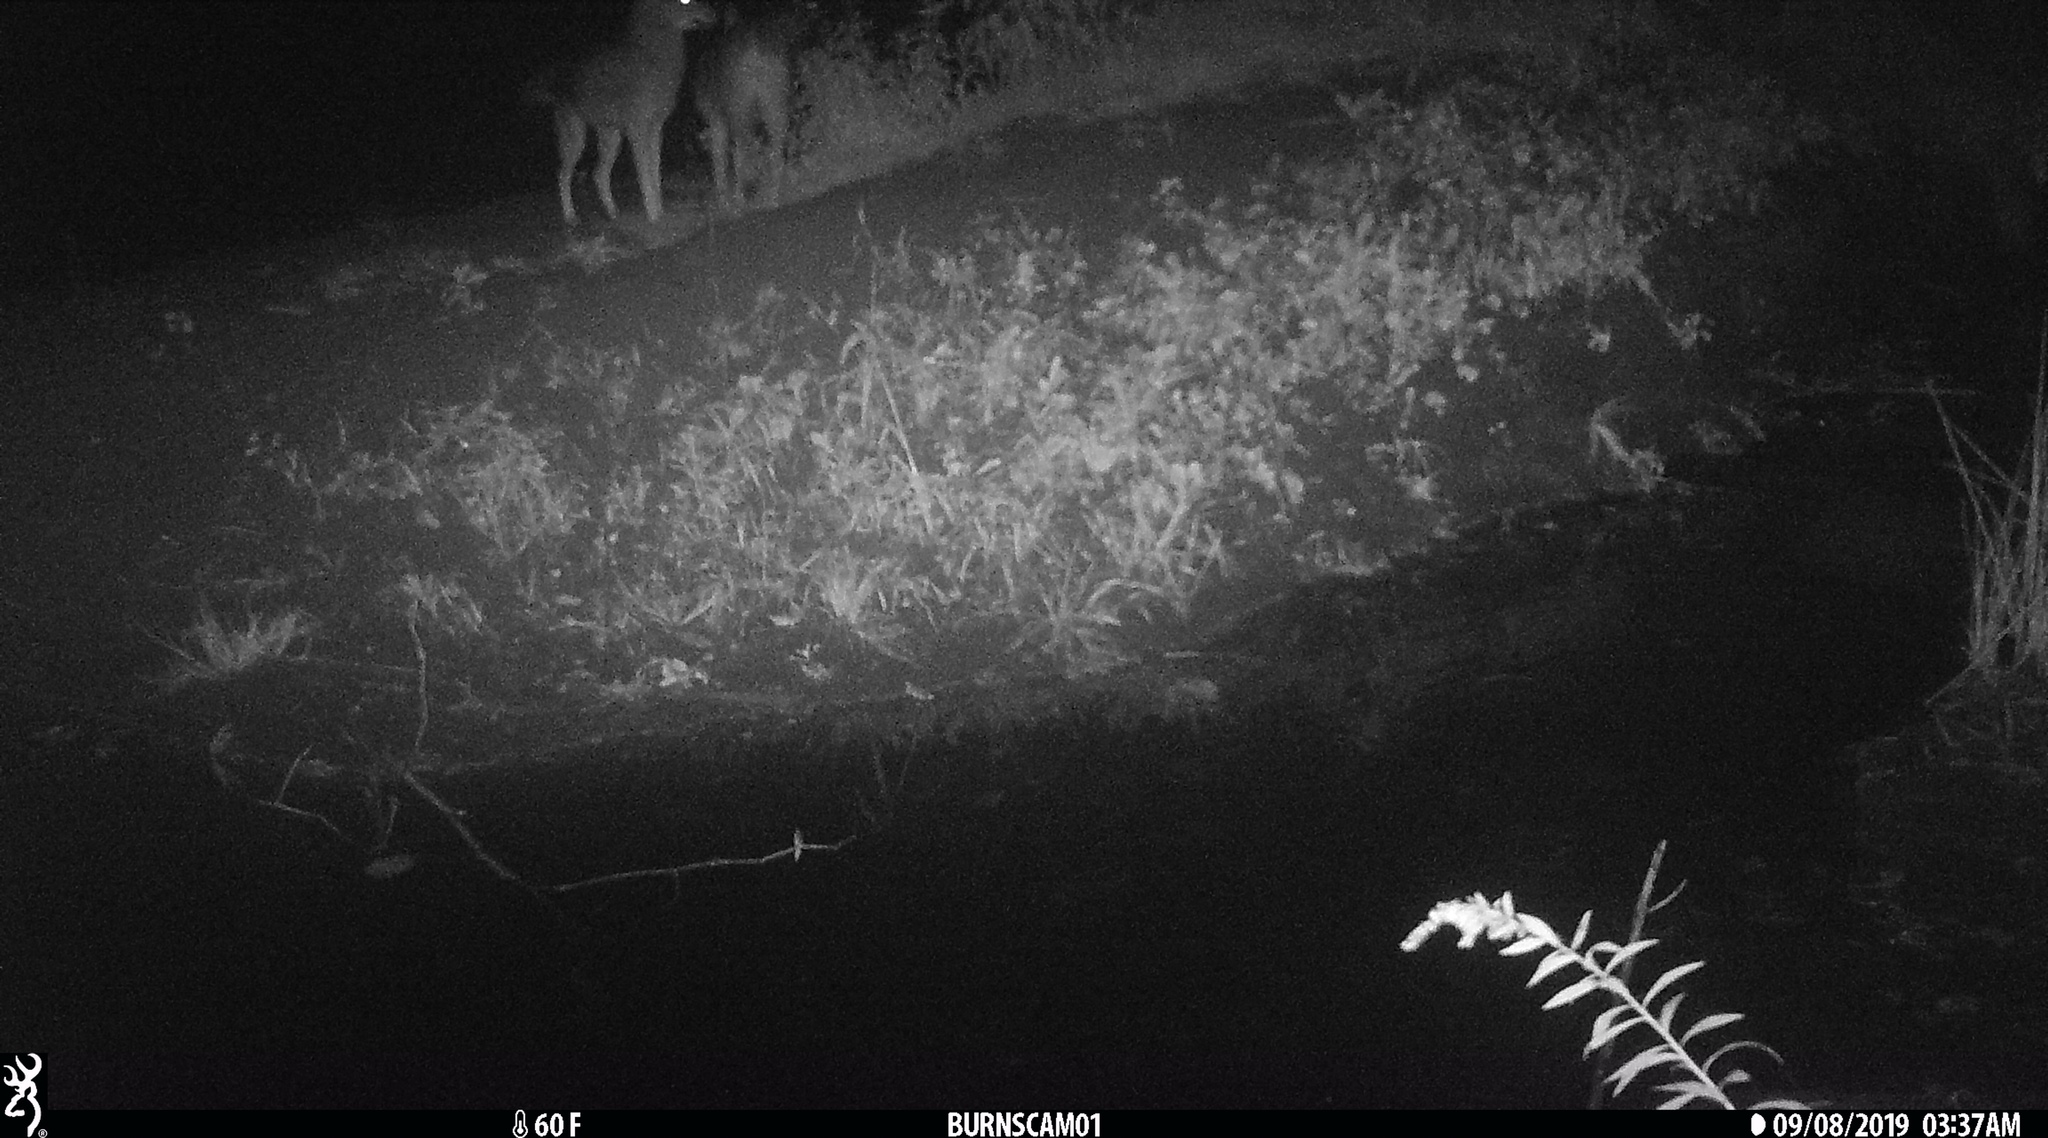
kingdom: Animalia
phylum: Chordata
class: Mammalia
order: Carnivora
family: Canidae
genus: Canis
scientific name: Canis latrans
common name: Coyote
